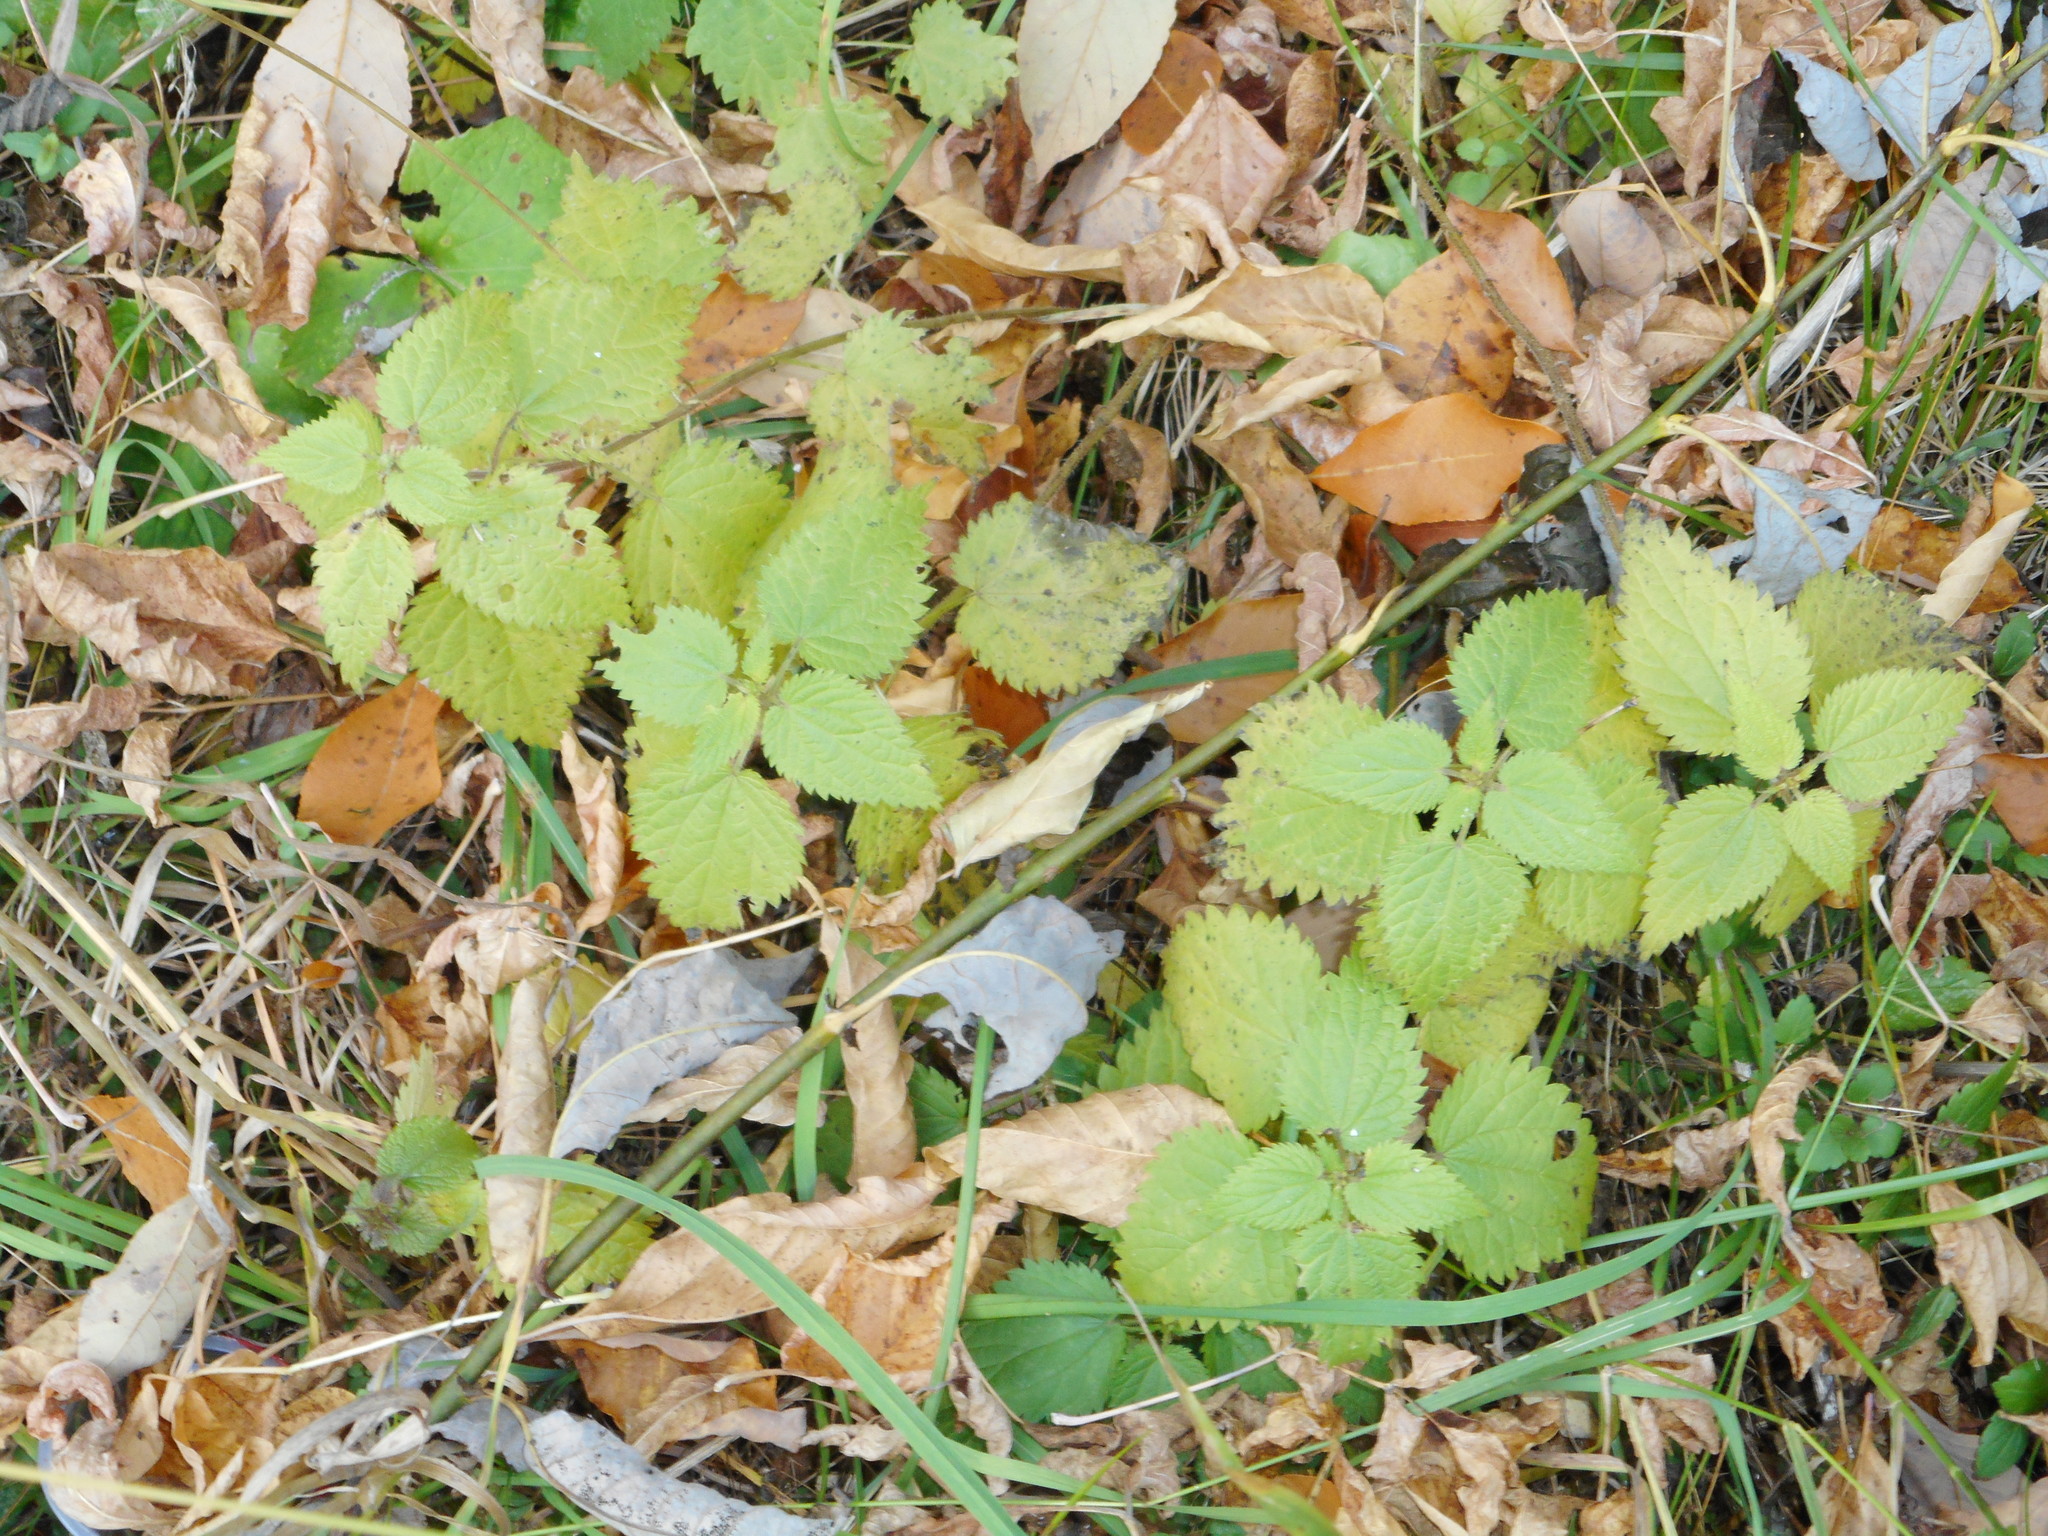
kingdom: Plantae
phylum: Tracheophyta
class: Magnoliopsida
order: Rosales
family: Urticaceae
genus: Urtica
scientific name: Urtica dioica
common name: Common nettle
